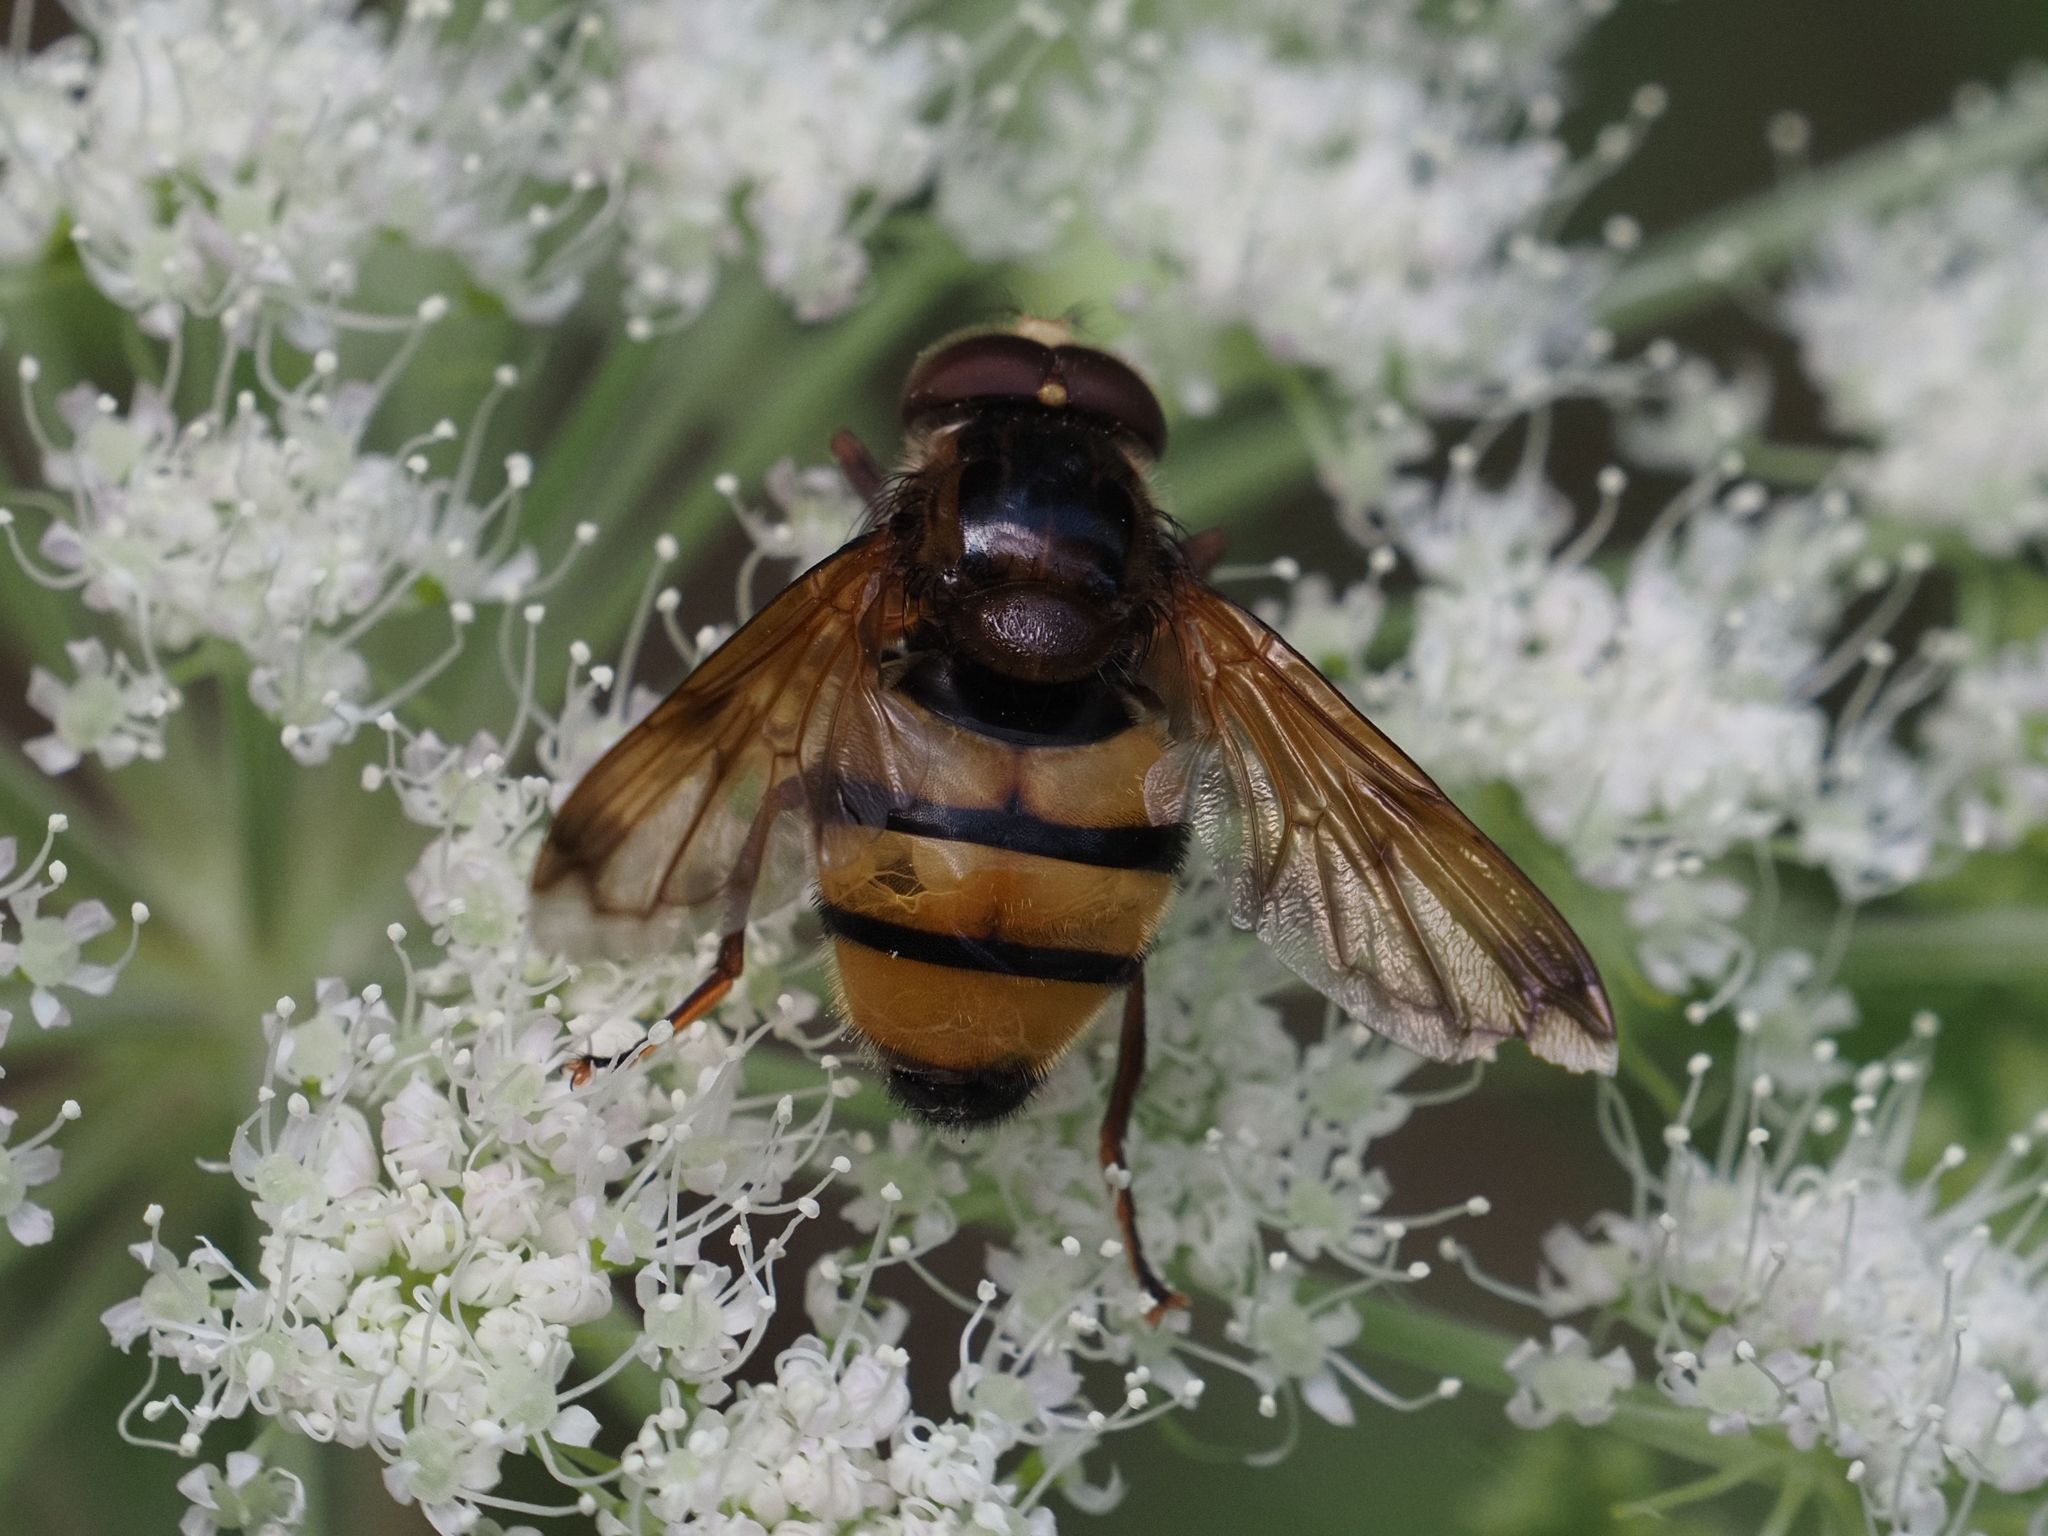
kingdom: Animalia
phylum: Arthropoda
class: Insecta
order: Diptera
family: Syrphidae
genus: Volucella
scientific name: Volucella inanis
